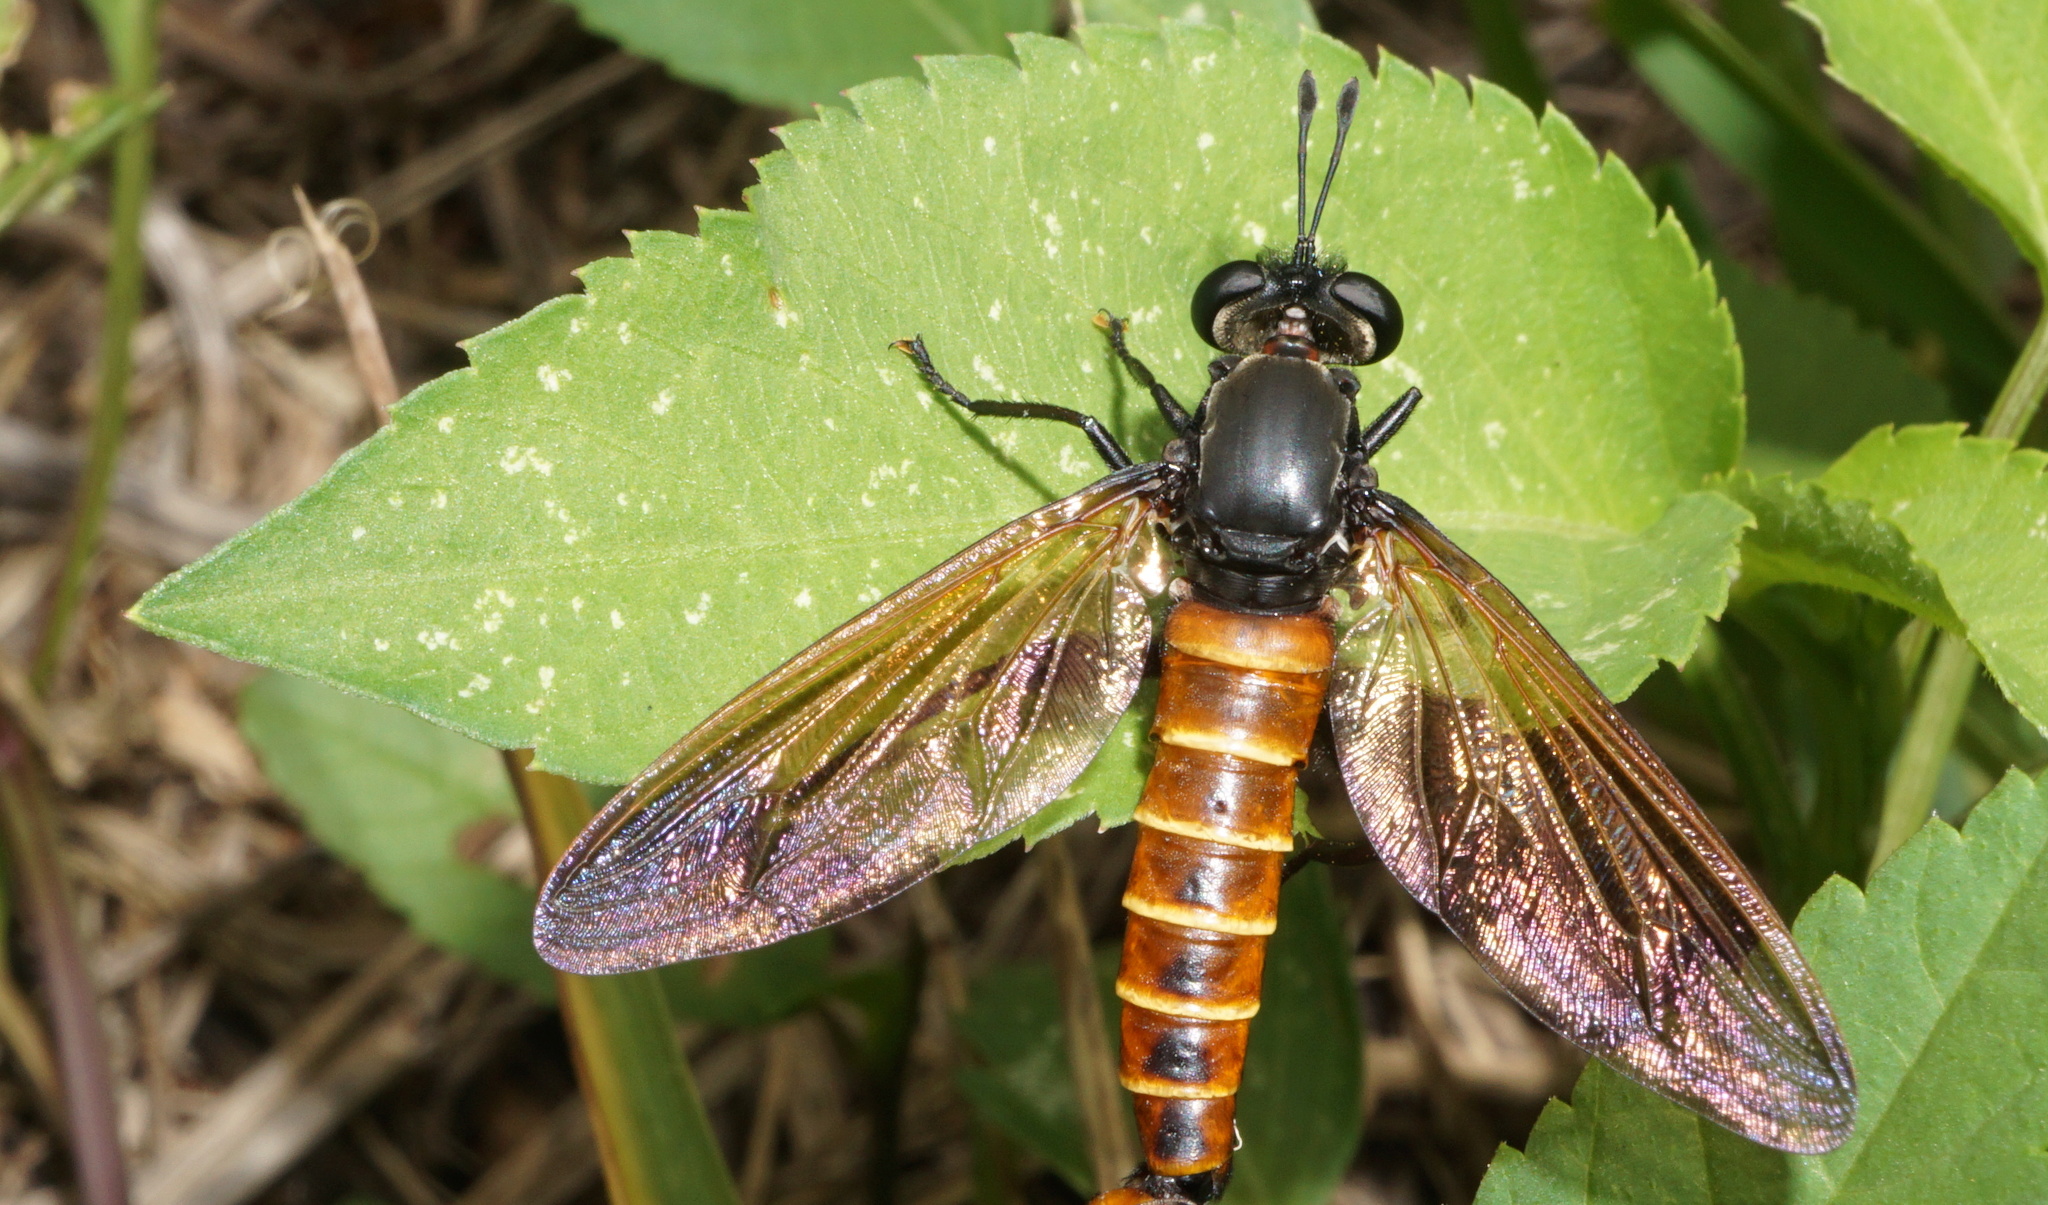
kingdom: Animalia
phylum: Arthropoda
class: Insecta
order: Diptera
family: Mydidae
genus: Mydas
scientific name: Mydas maculiventris
